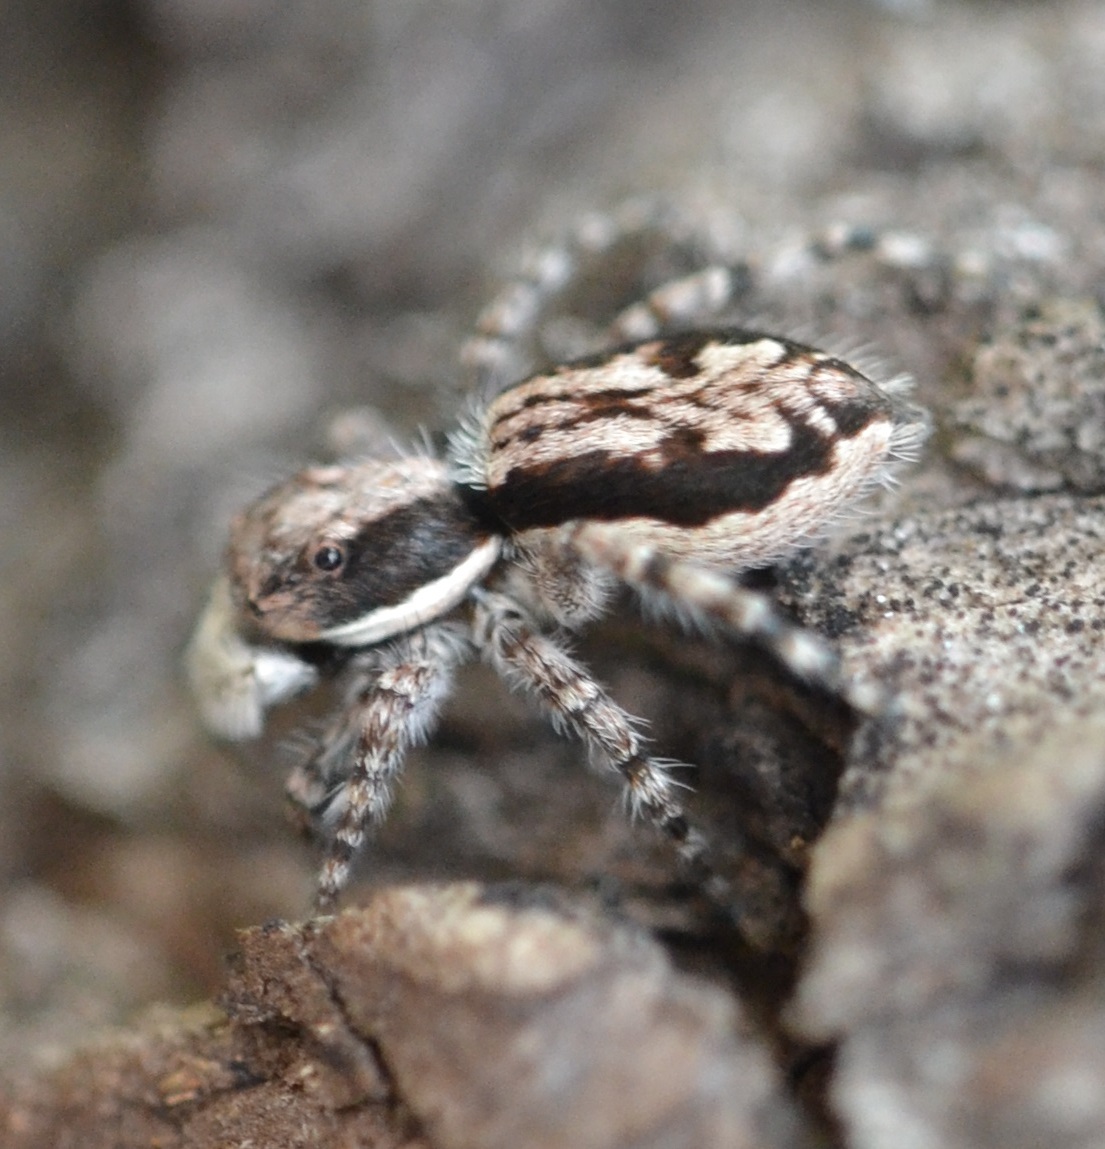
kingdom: Animalia
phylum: Arthropoda
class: Arachnida
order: Araneae
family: Salticidae
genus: Menemerus
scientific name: Menemerus bivittatus
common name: Gray wall jumper
